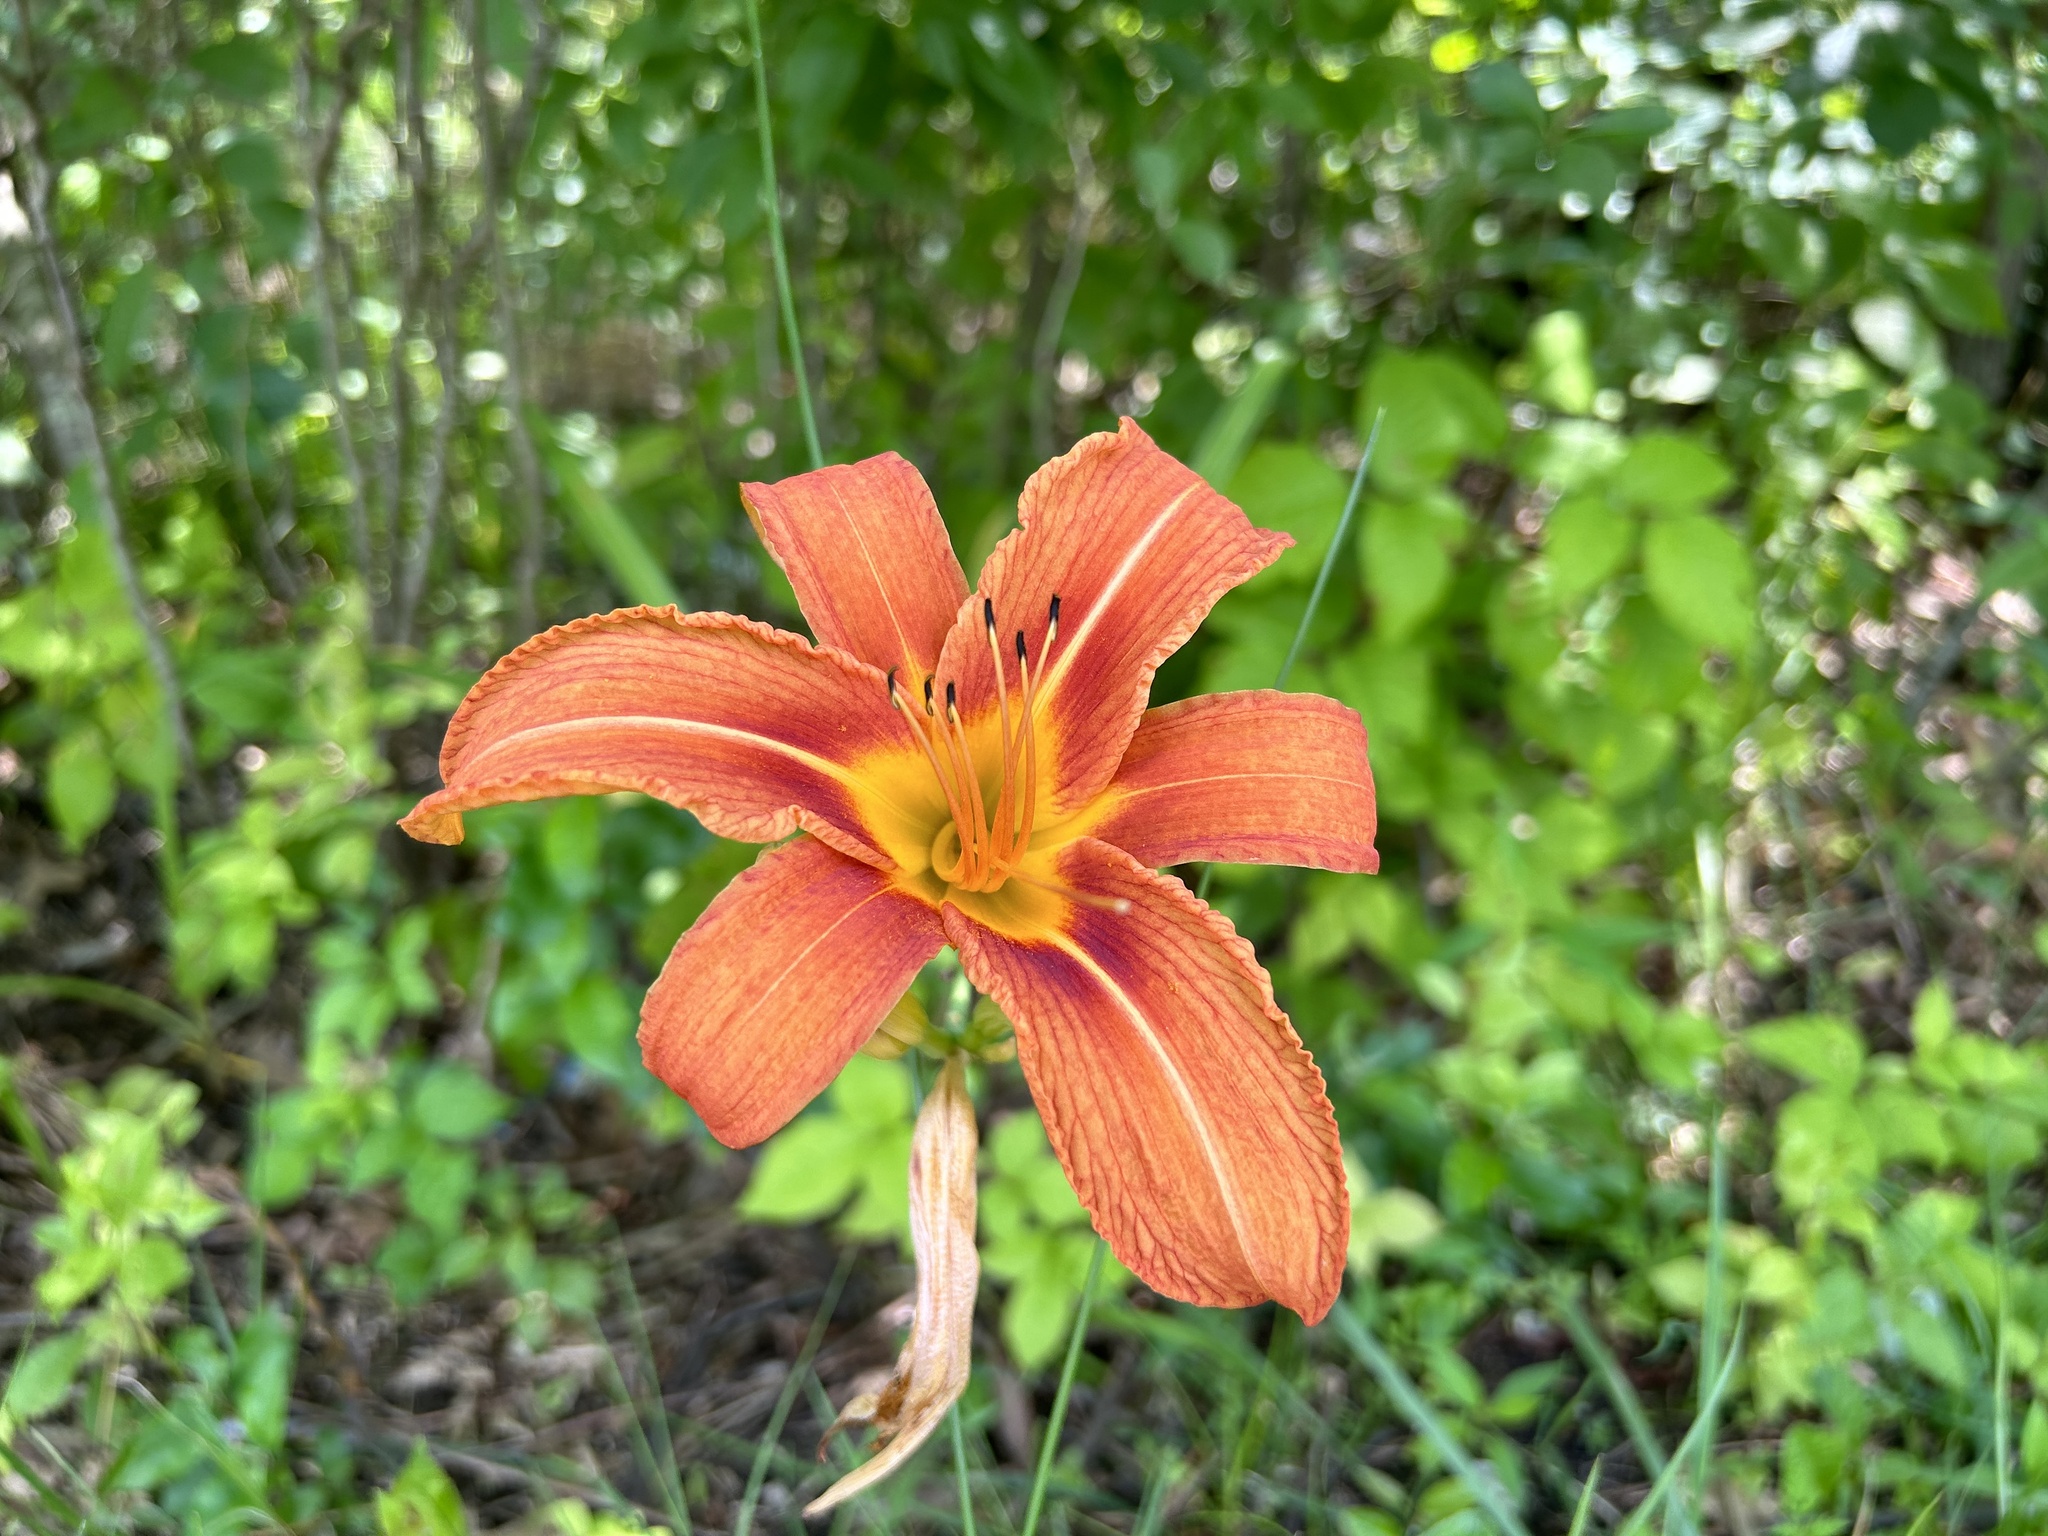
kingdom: Plantae
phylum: Tracheophyta
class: Liliopsida
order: Asparagales
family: Asphodelaceae
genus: Hemerocallis
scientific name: Hemerocallis fulva
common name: Orange day-lily
